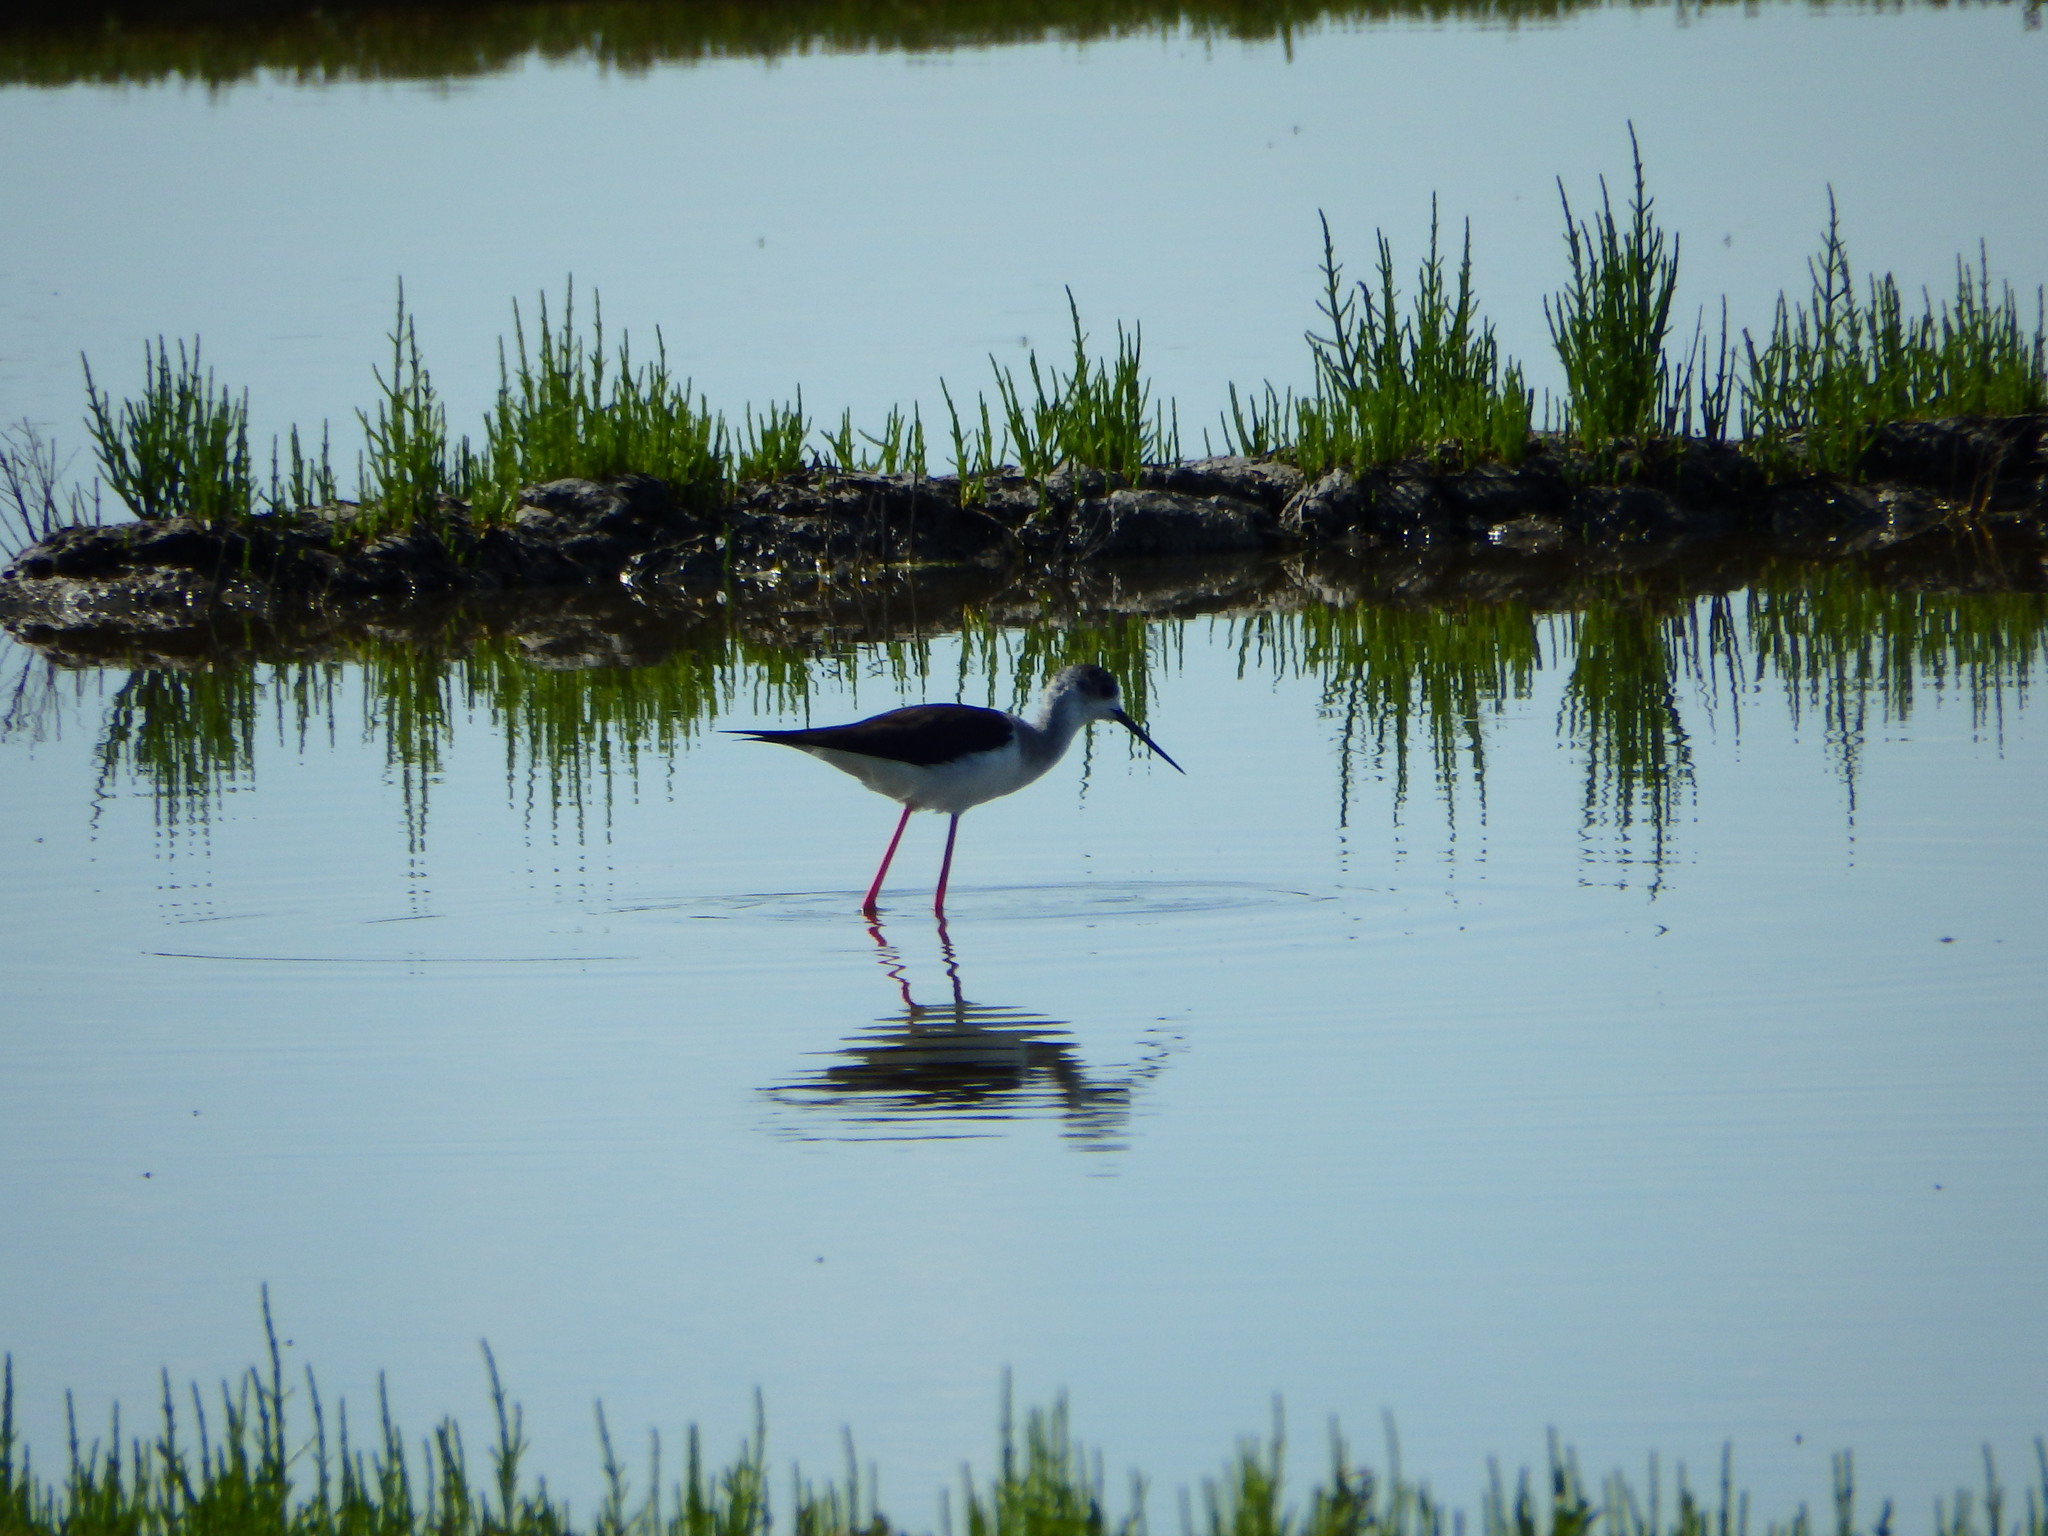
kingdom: Animalia
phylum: Chordata
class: Aves
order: Charadriiformes
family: Recurvirostridae
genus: Himantopus
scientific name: Himantopus himantopus
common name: Black-winged stilt
